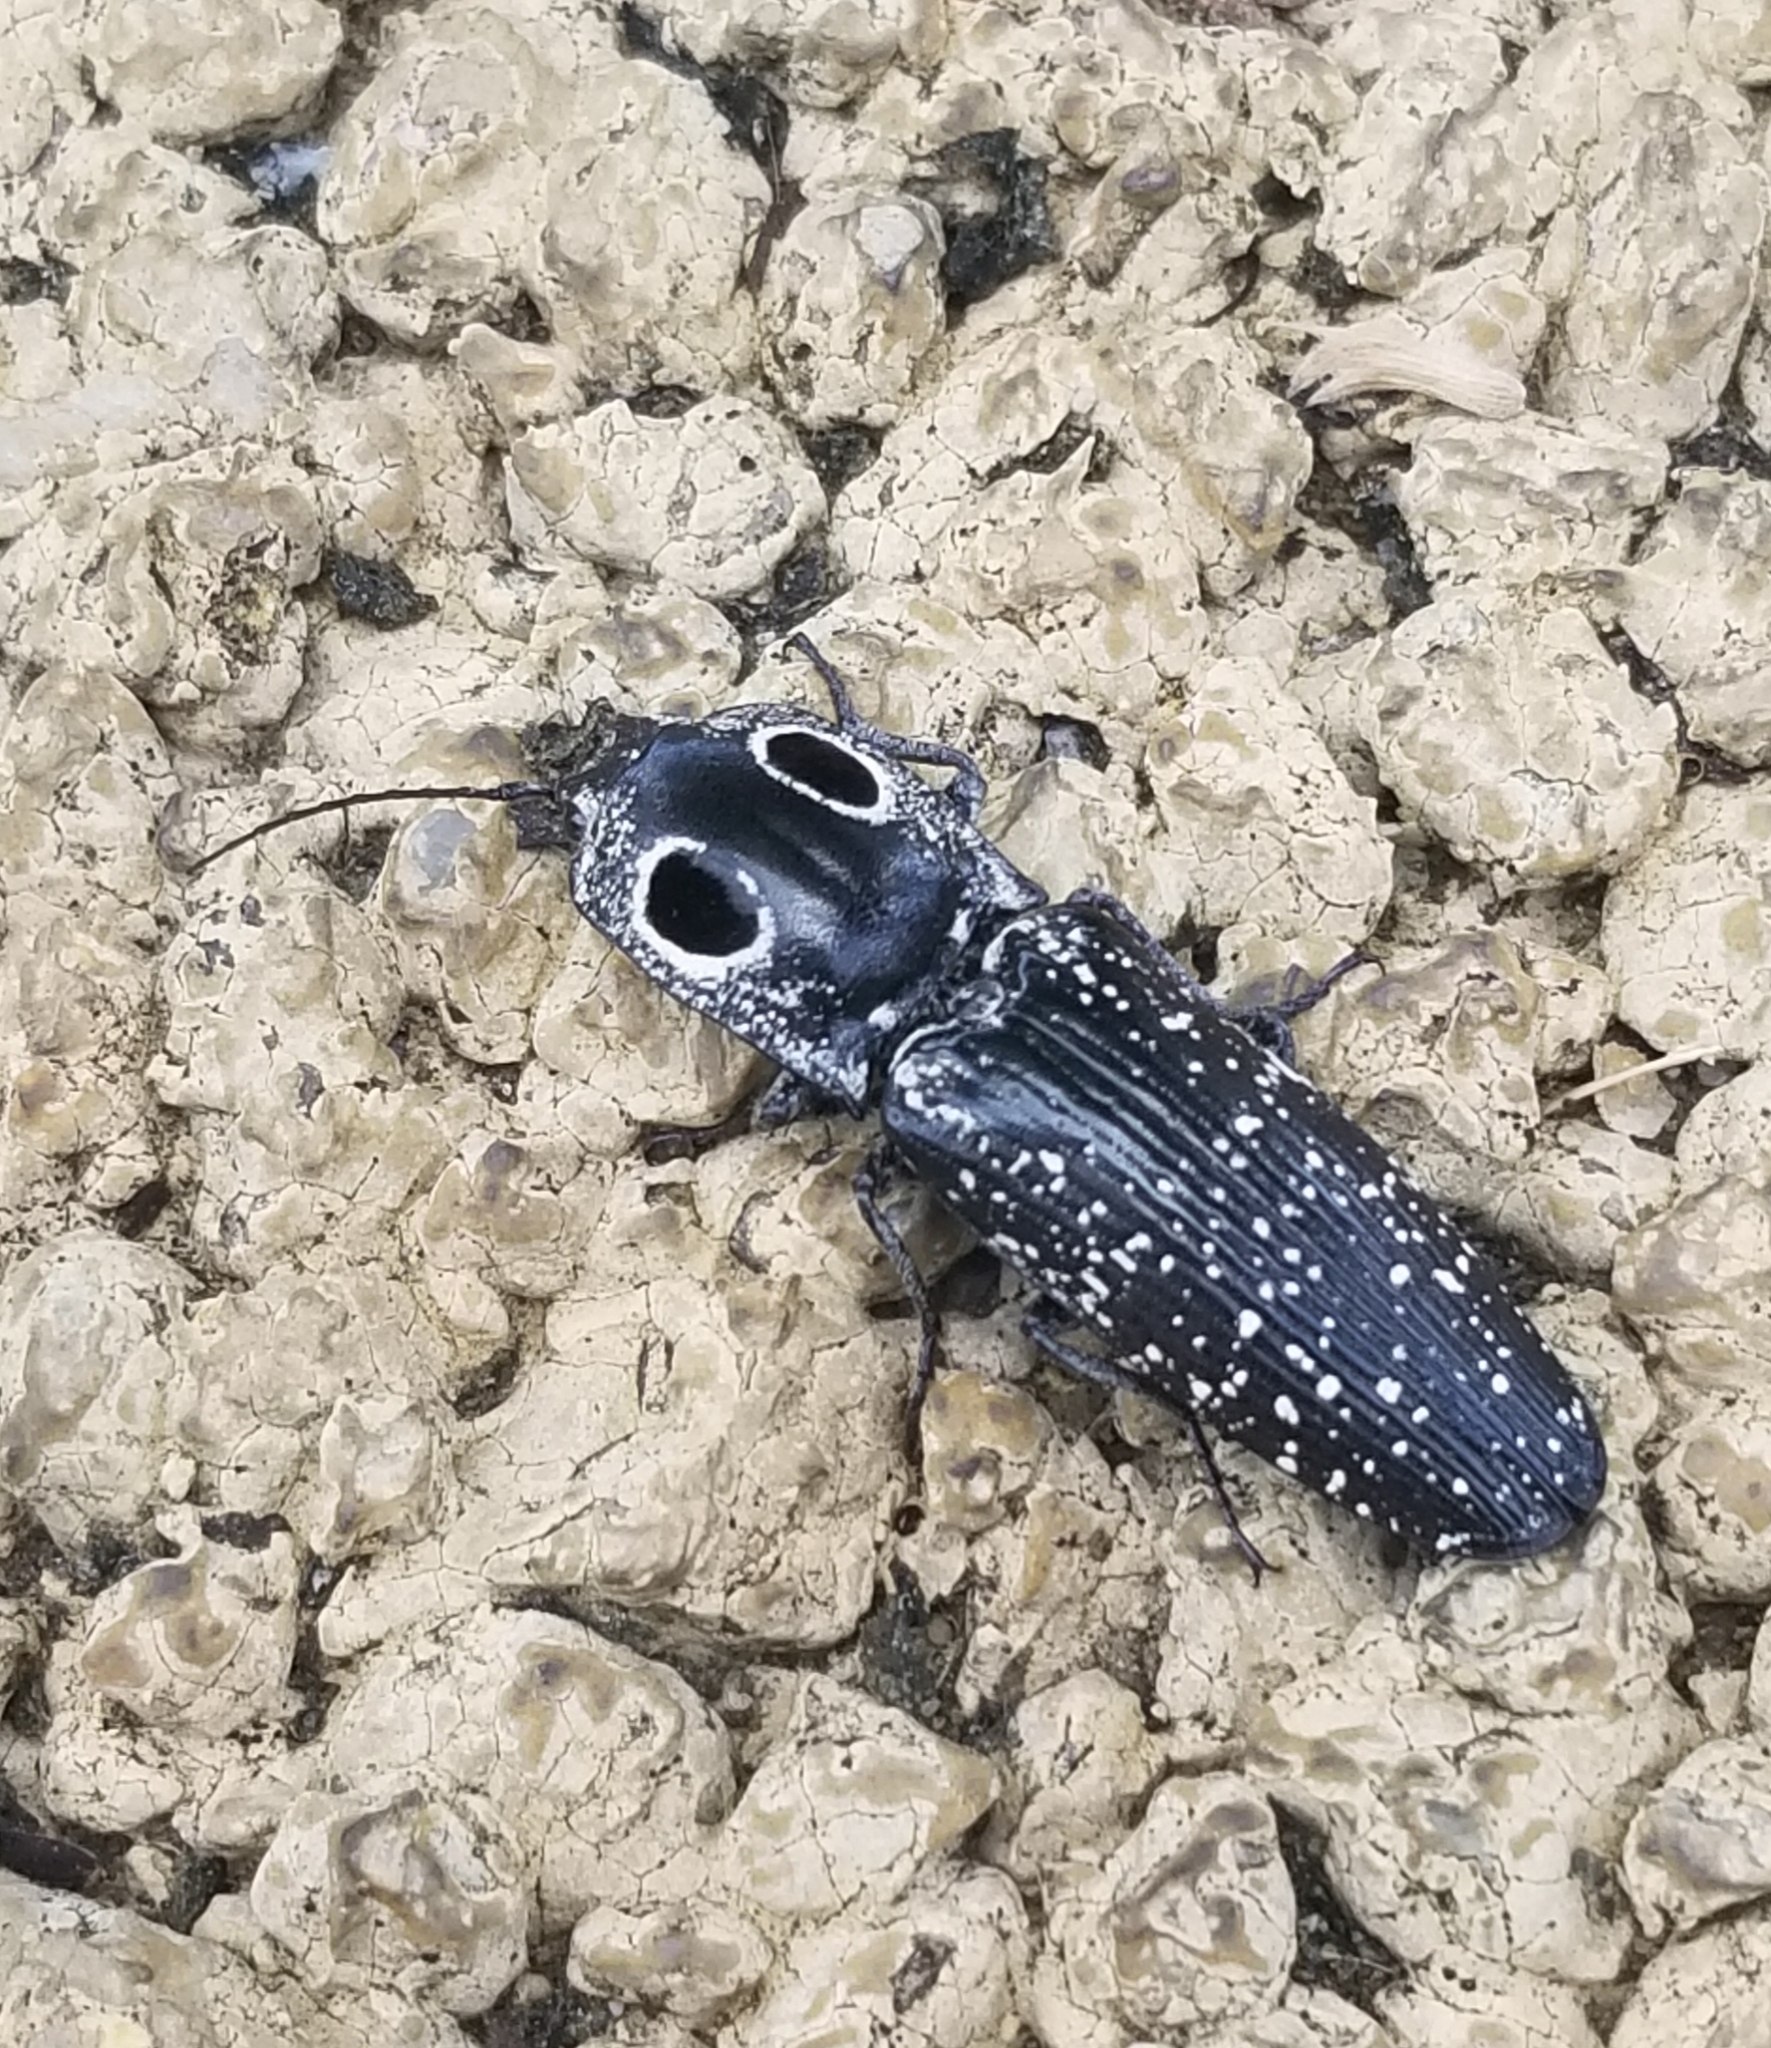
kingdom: Animalia
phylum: Arthropoda
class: Insecta
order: Coleoptera
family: Elateridae
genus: Alaus
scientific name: Alaus oculatus
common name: Eastern eyed click beetle
